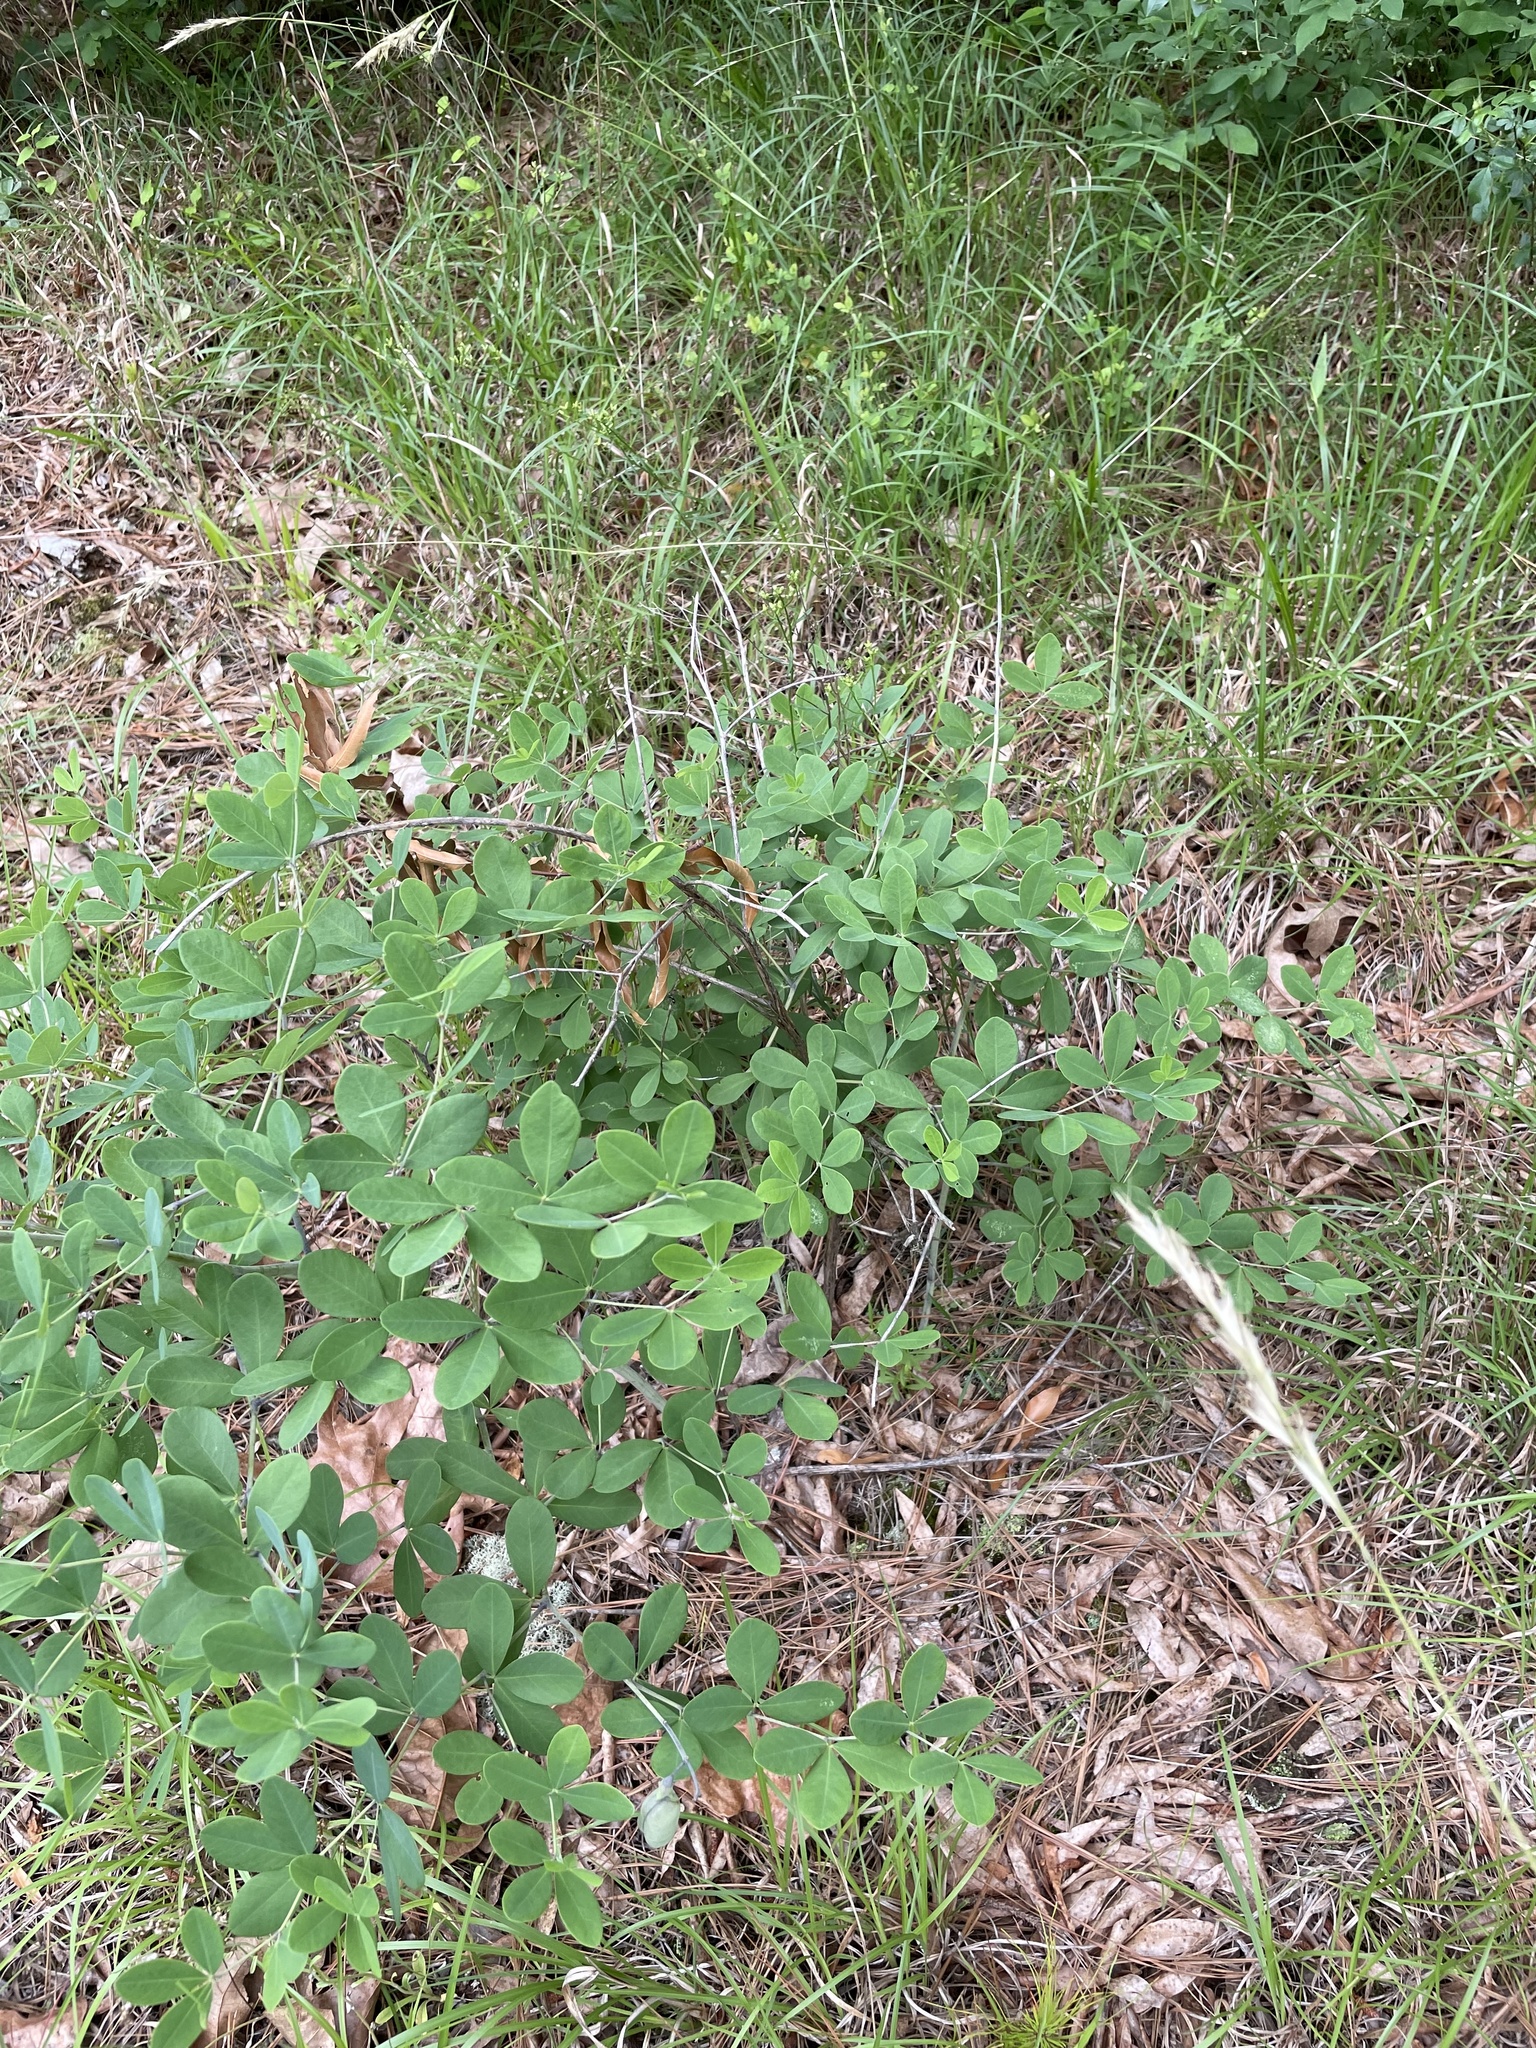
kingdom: Plantae
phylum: Tracheophyta
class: Magnoliopsida
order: Fabales
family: Fabaceae
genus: Baptisia
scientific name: Baptisia alba
